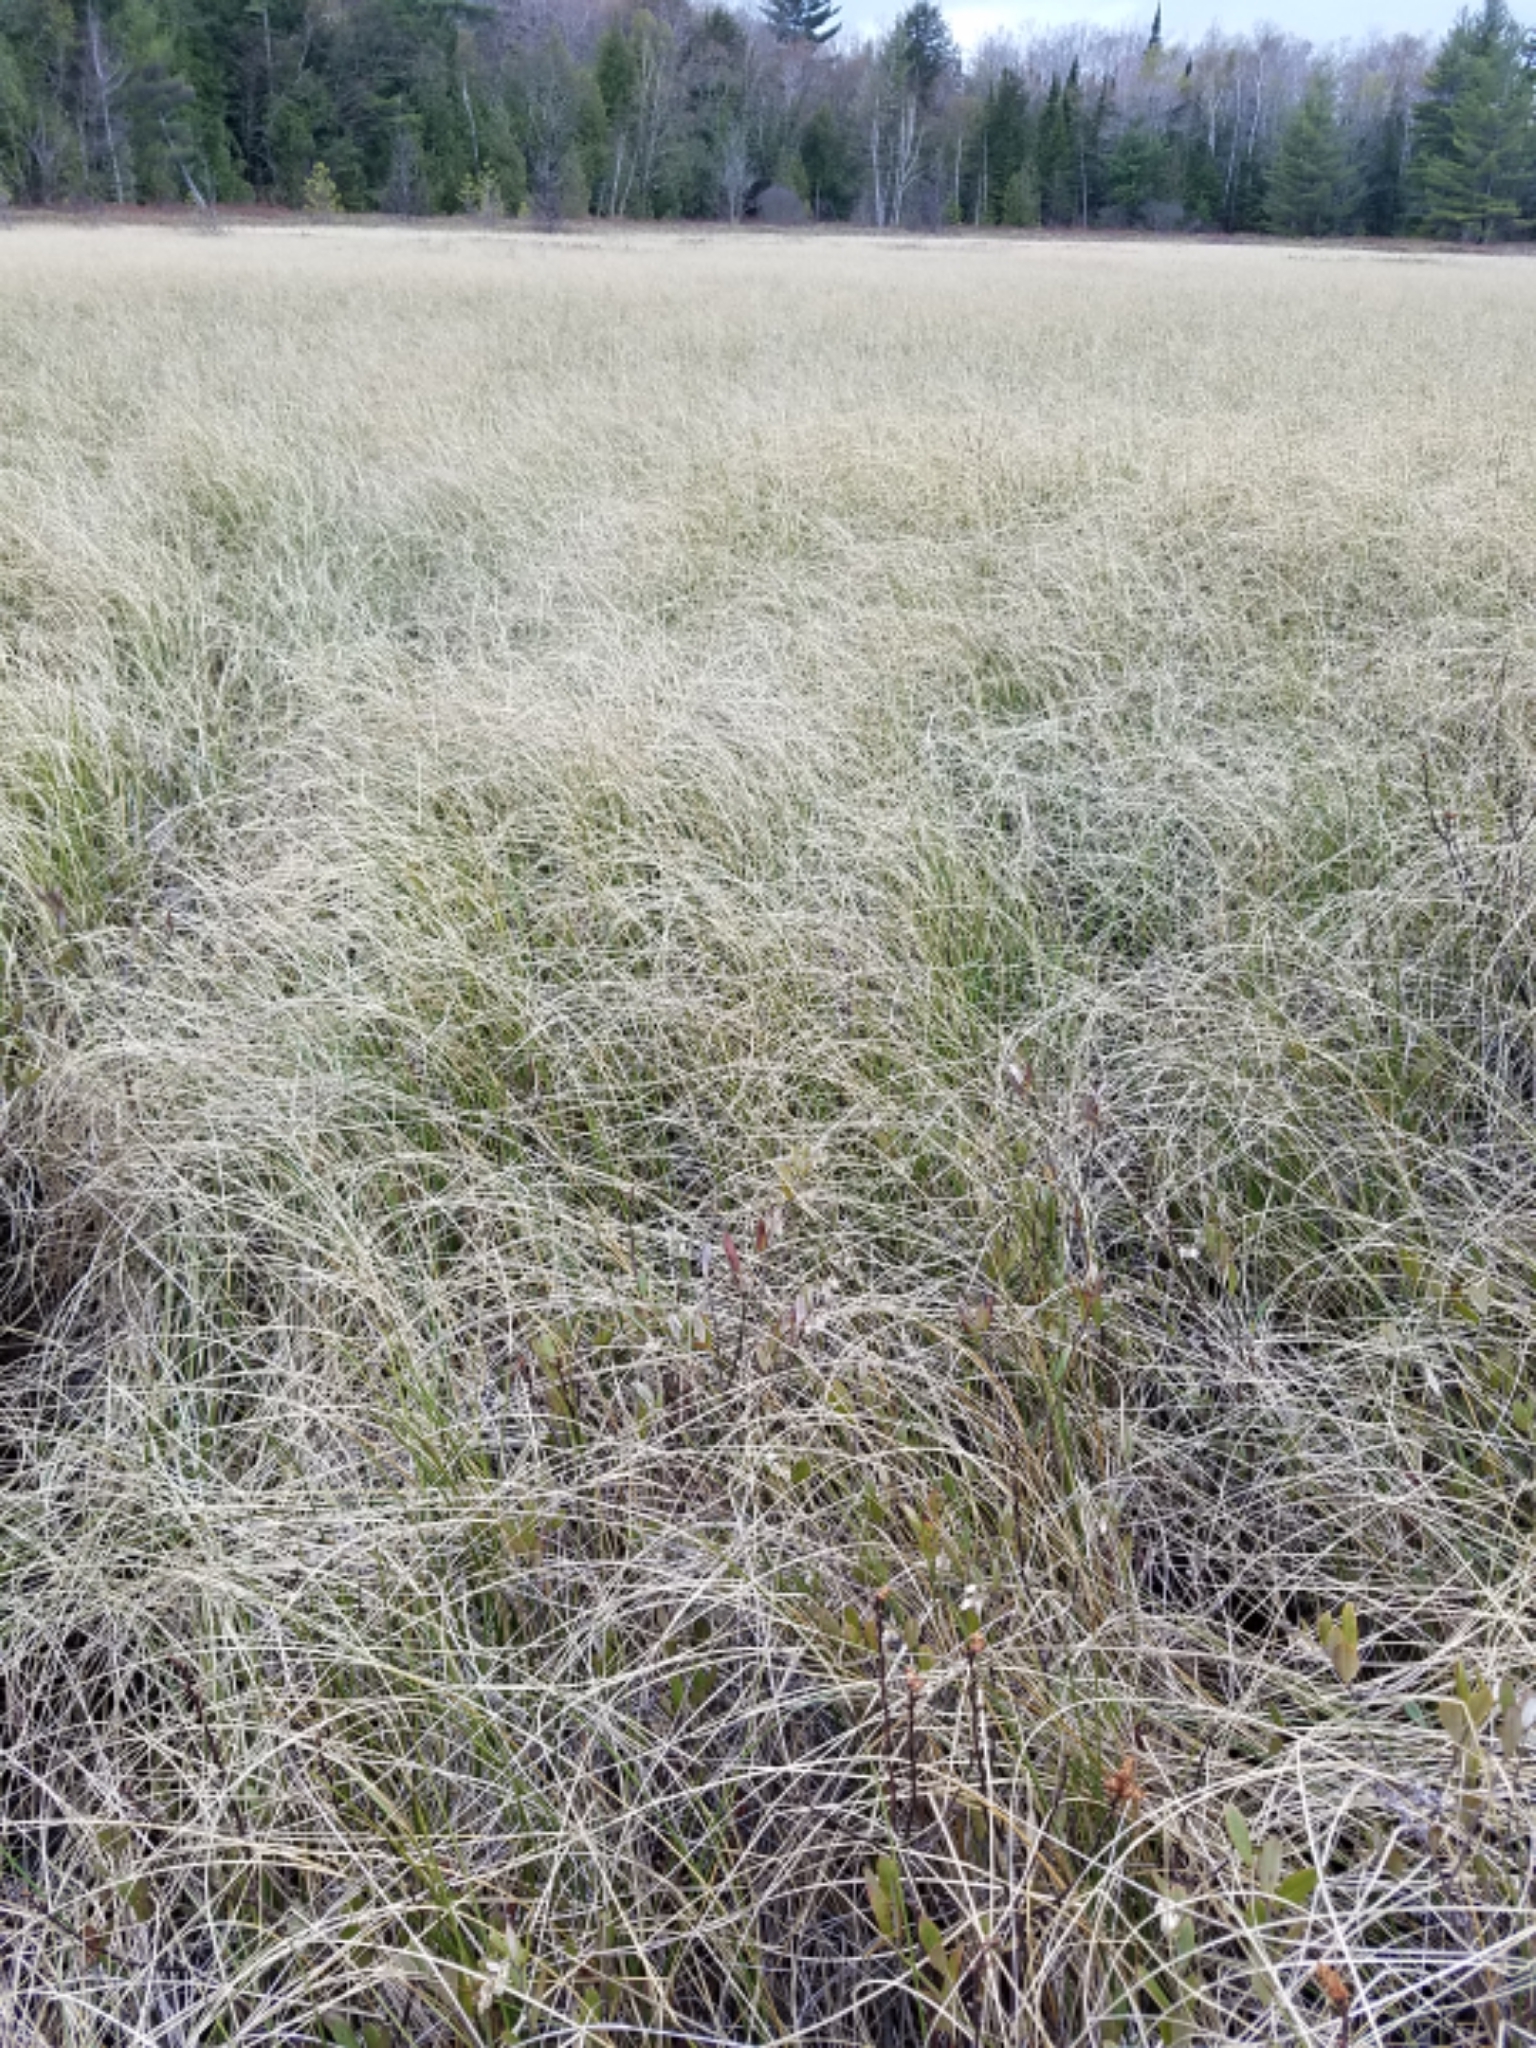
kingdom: Plantae
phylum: Tracheophyta
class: Liliopsida
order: Poales
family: Cyperaceae
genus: Carex
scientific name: Carex lasiocarpa
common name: Slender sedge
